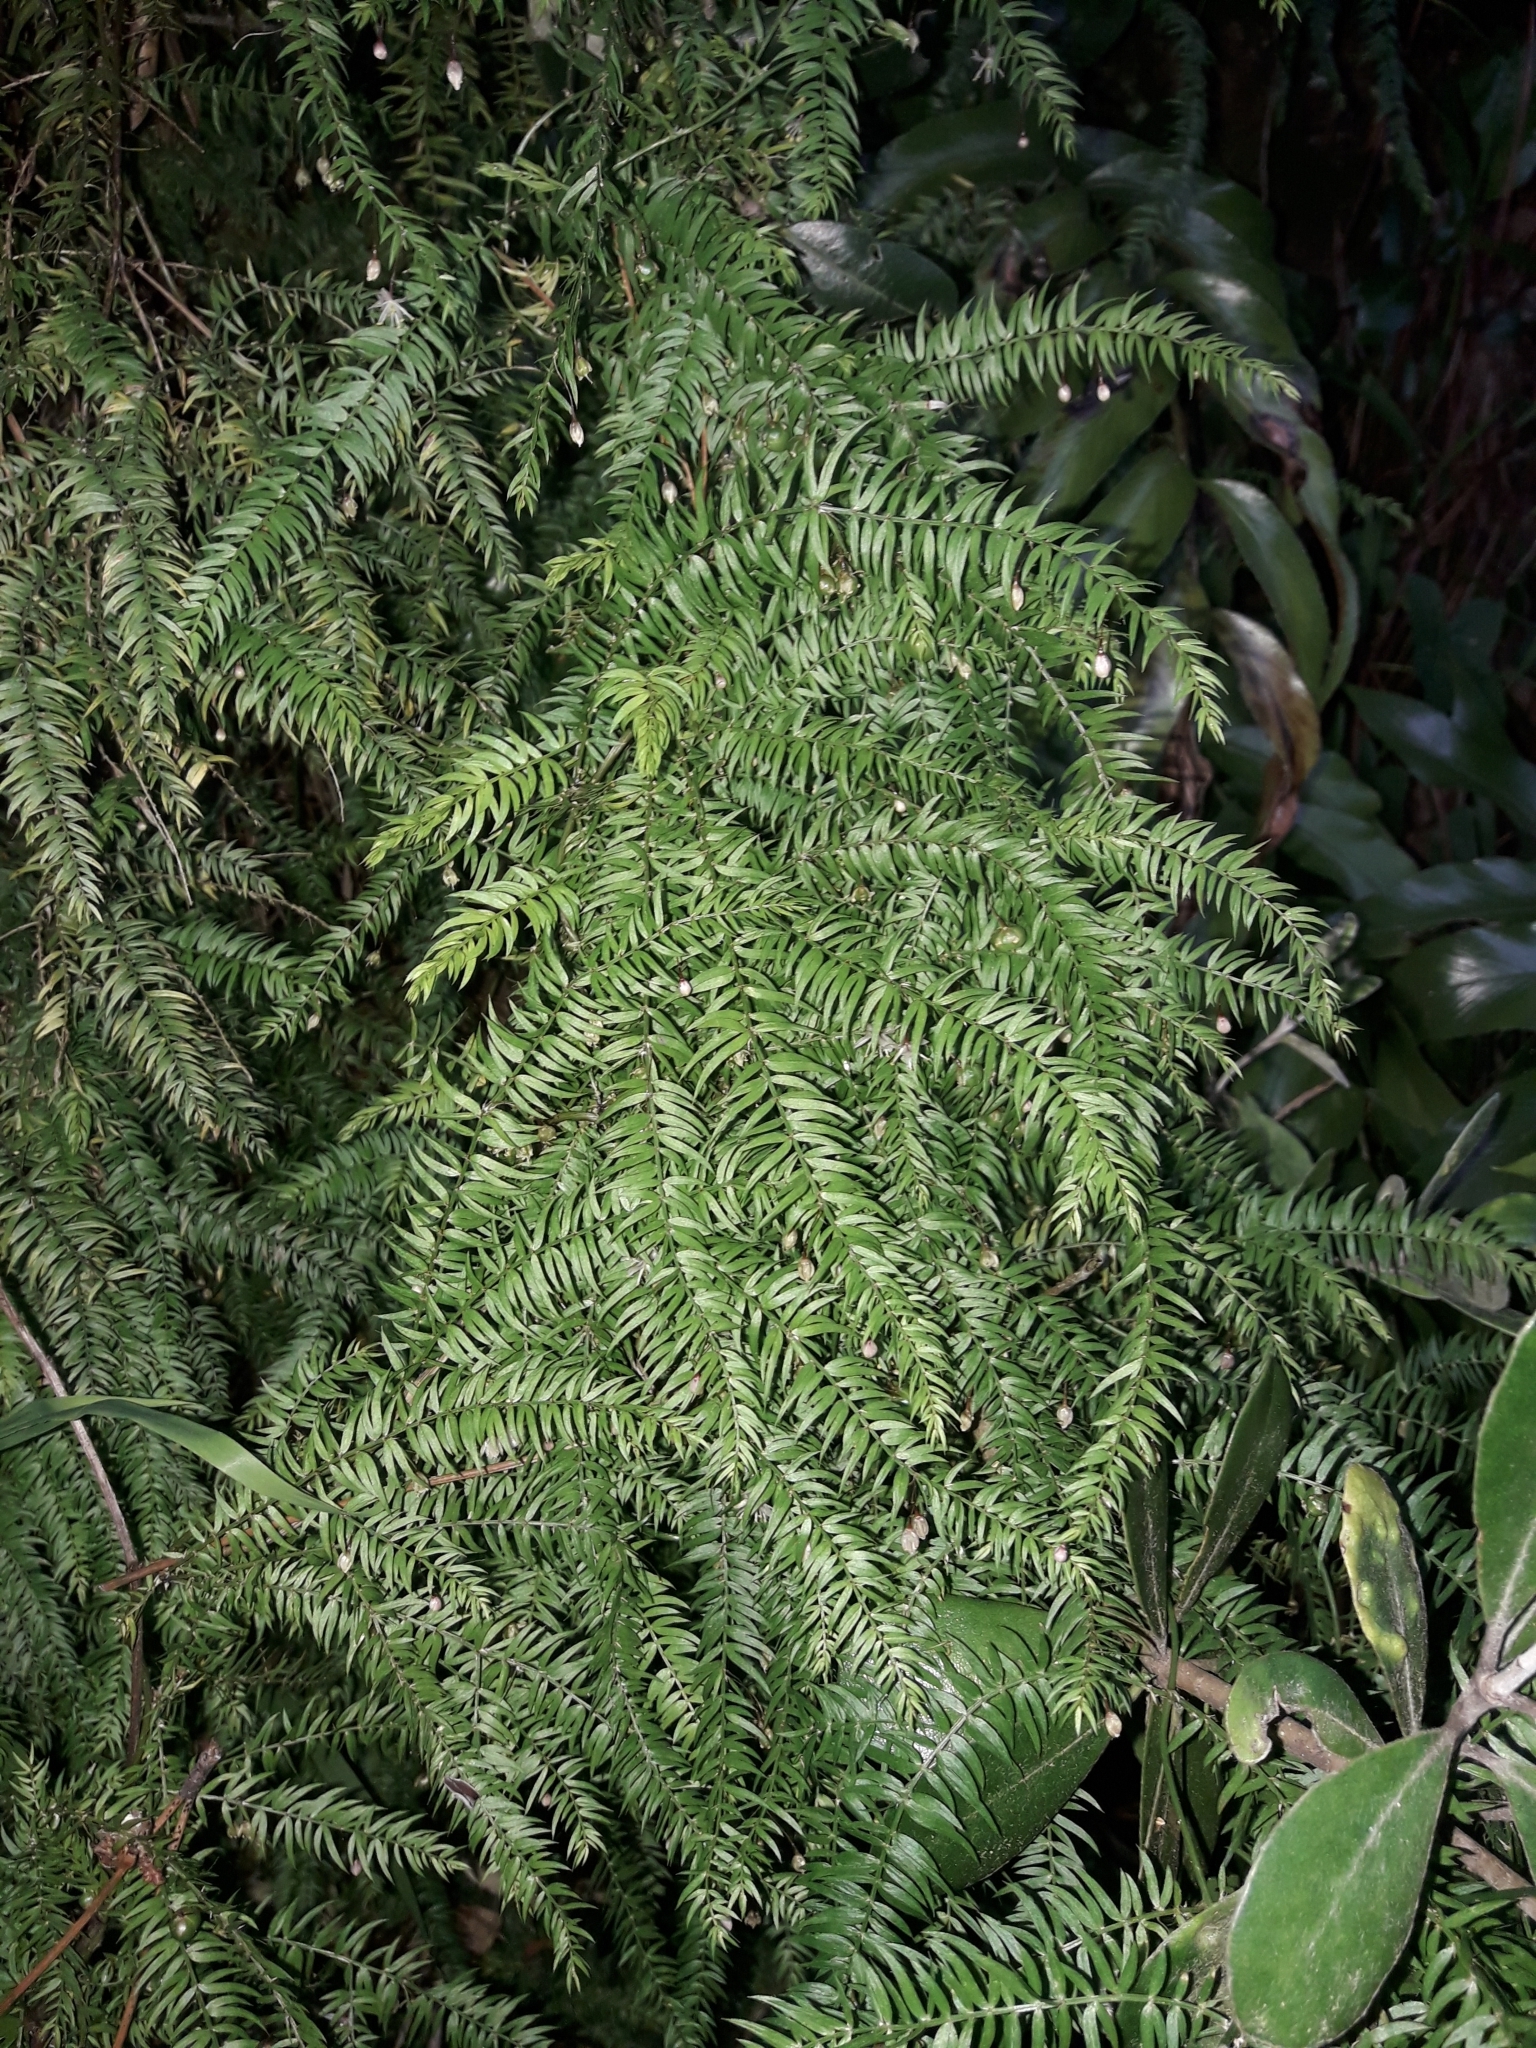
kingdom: Plantae
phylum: Tracheophyta
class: Liliopsida
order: Asparagales
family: Asparagaceae
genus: Asparagus
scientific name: Asparagus scandens
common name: Asparagus-fern
